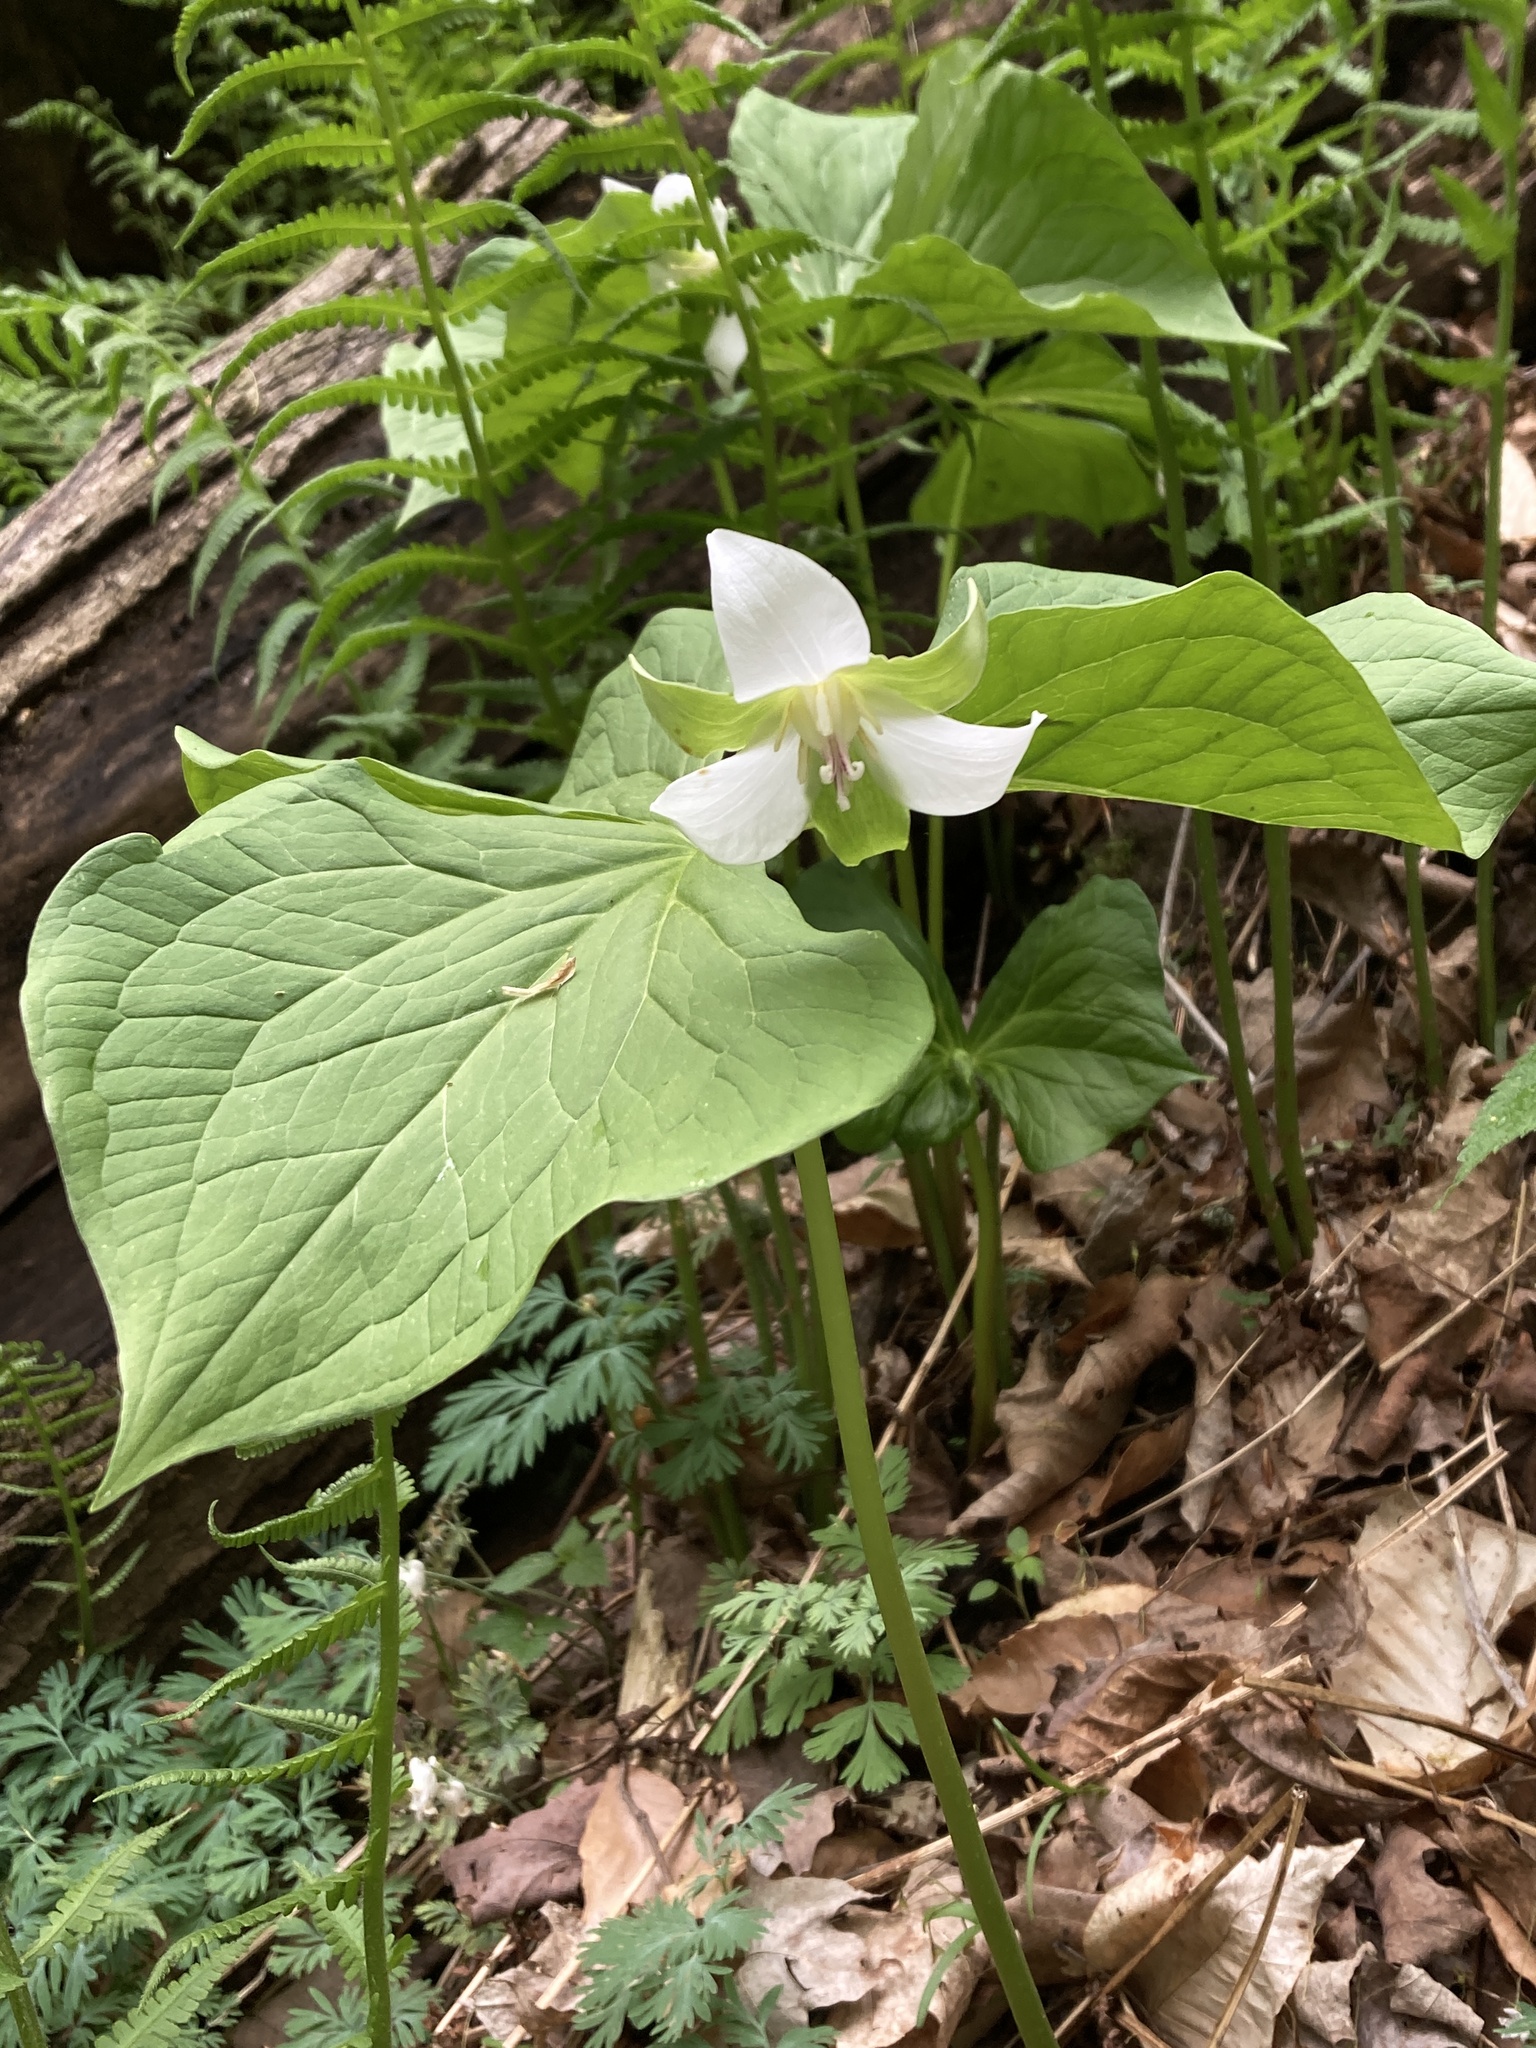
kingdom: Plantae
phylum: Tracheophyta
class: Liliopsida
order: Liliales
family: Melanthiaceae
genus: Trillium
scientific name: Trillium flexipes
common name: Drooping trillium
